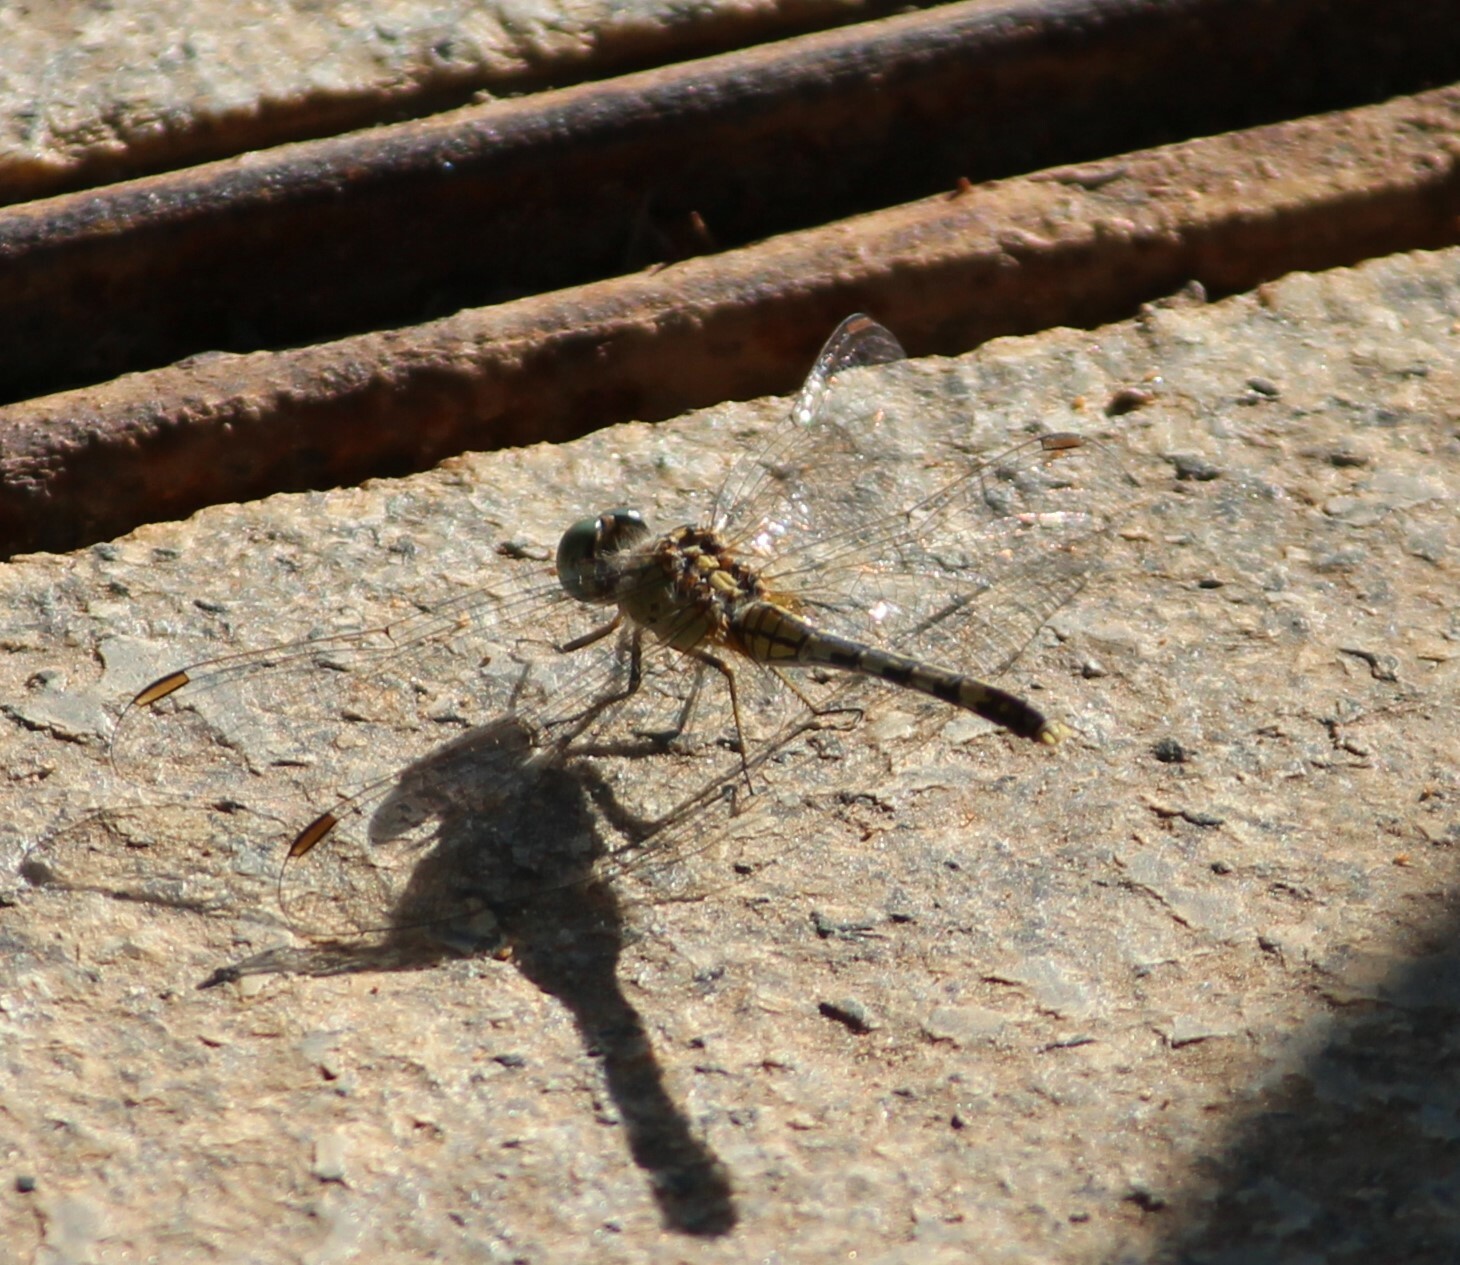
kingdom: Animalia
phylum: Arthropoda
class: Insecta
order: Odonata
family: Libellulidae
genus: Diplacodes
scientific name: Diplacodes trivialis
